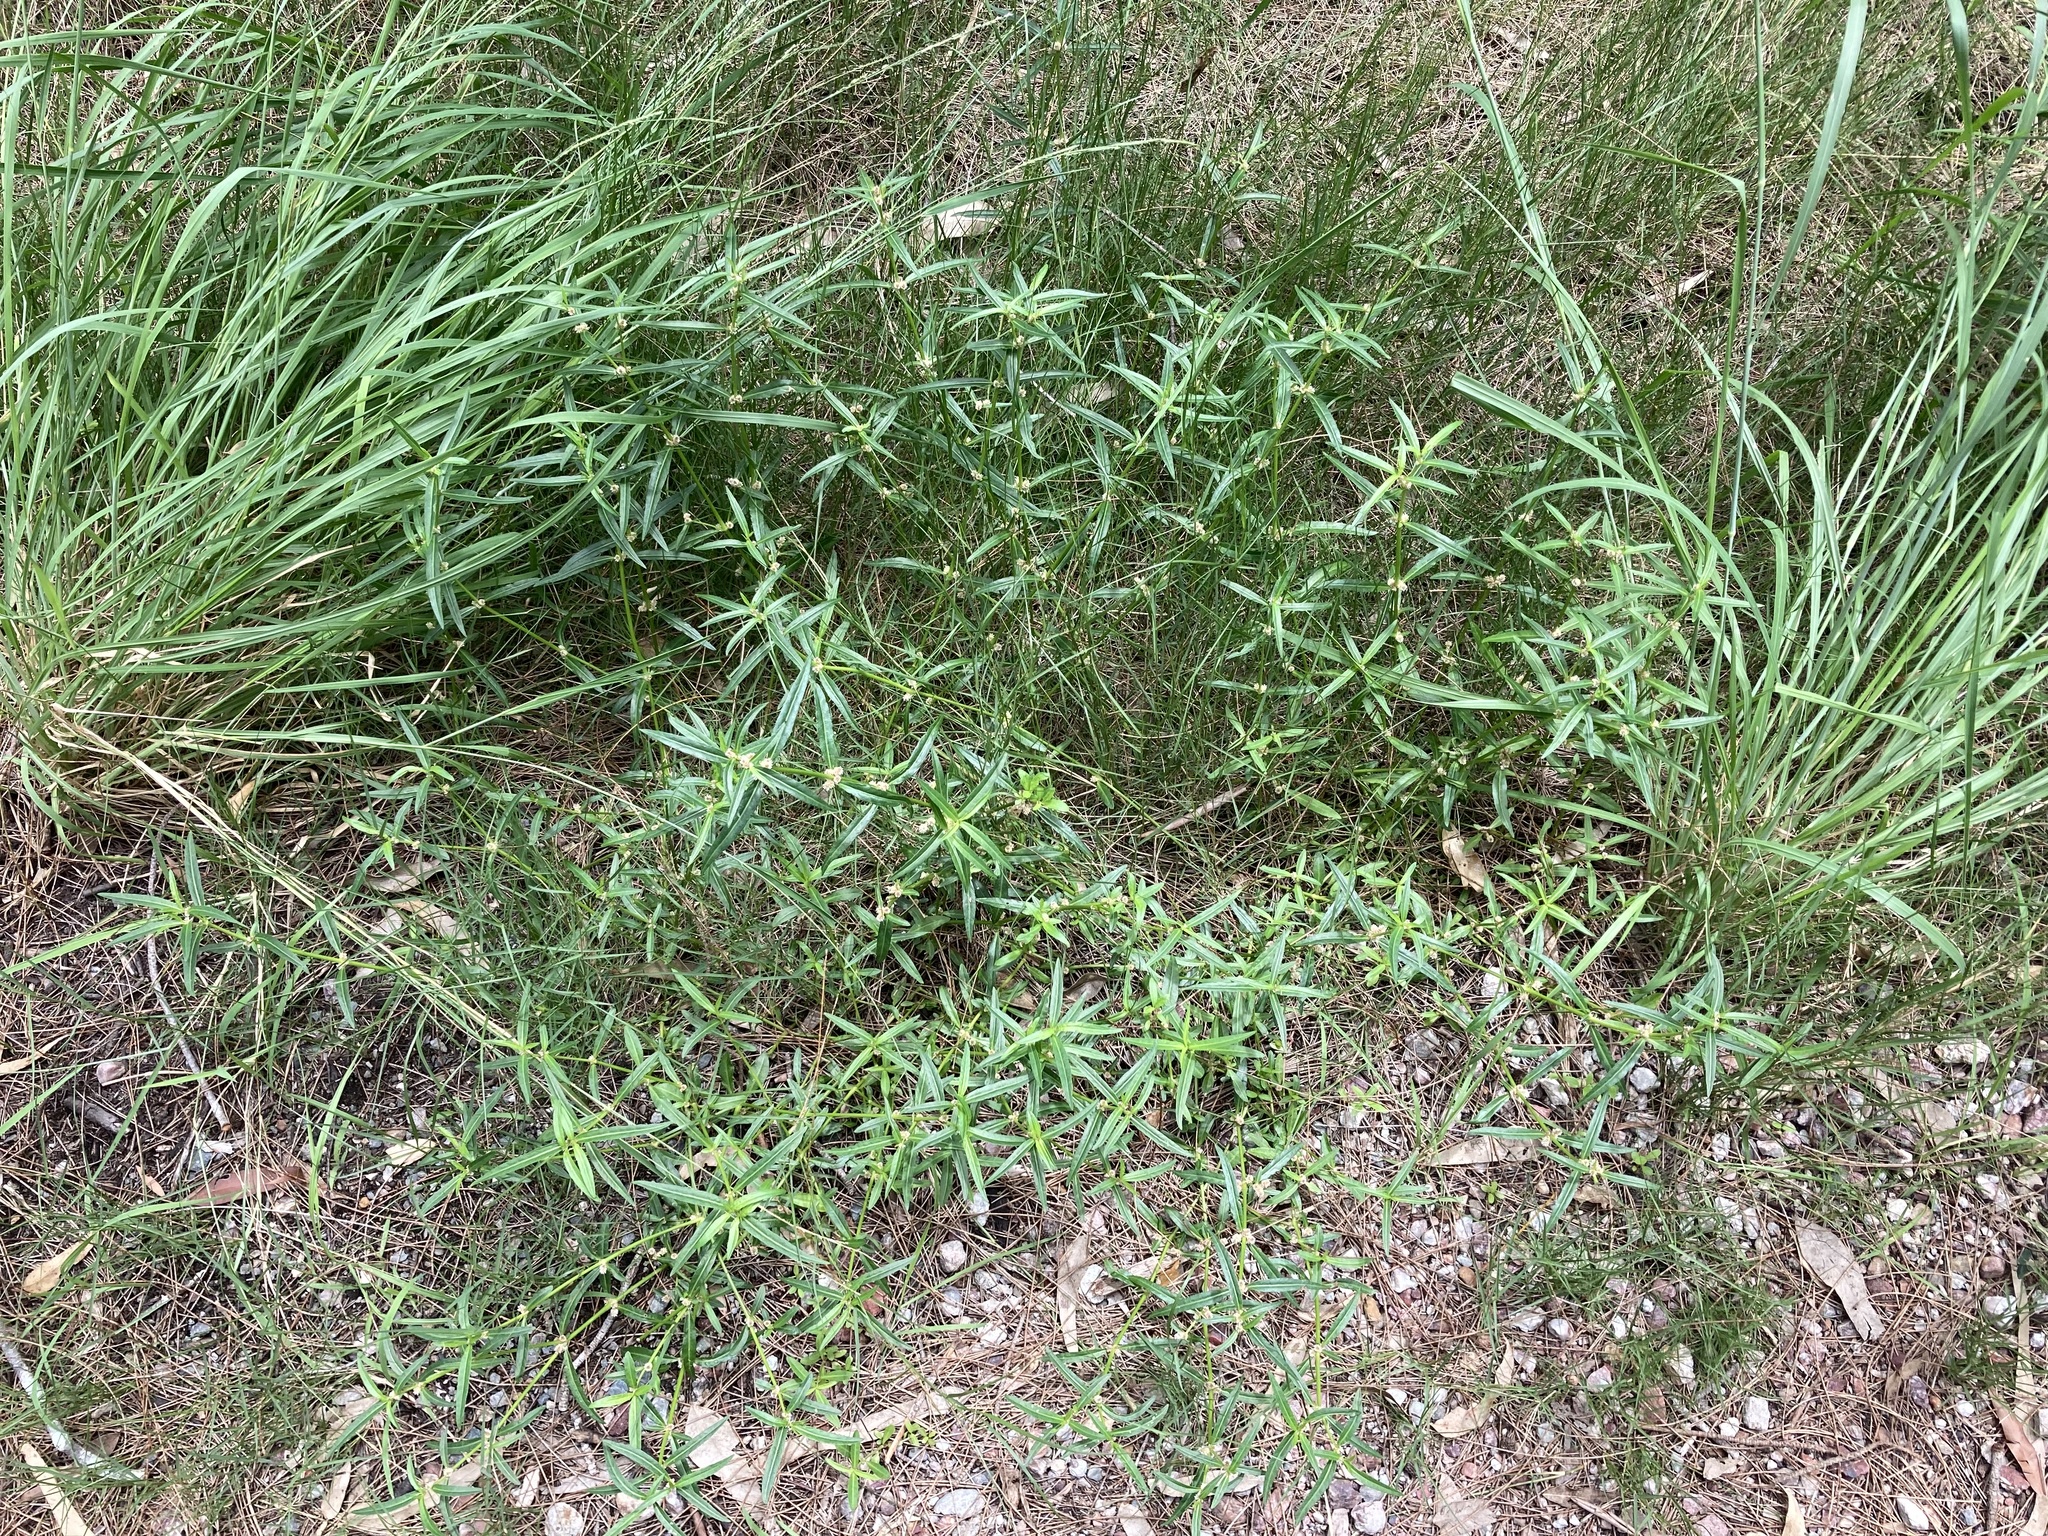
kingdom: Plantae
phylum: Tracheophyta
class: Magnoliopsida
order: Caryophyllales
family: Amaranthaceae
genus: Alternanthera
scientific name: Alternanthera denticulata
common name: Lesser joyweed
